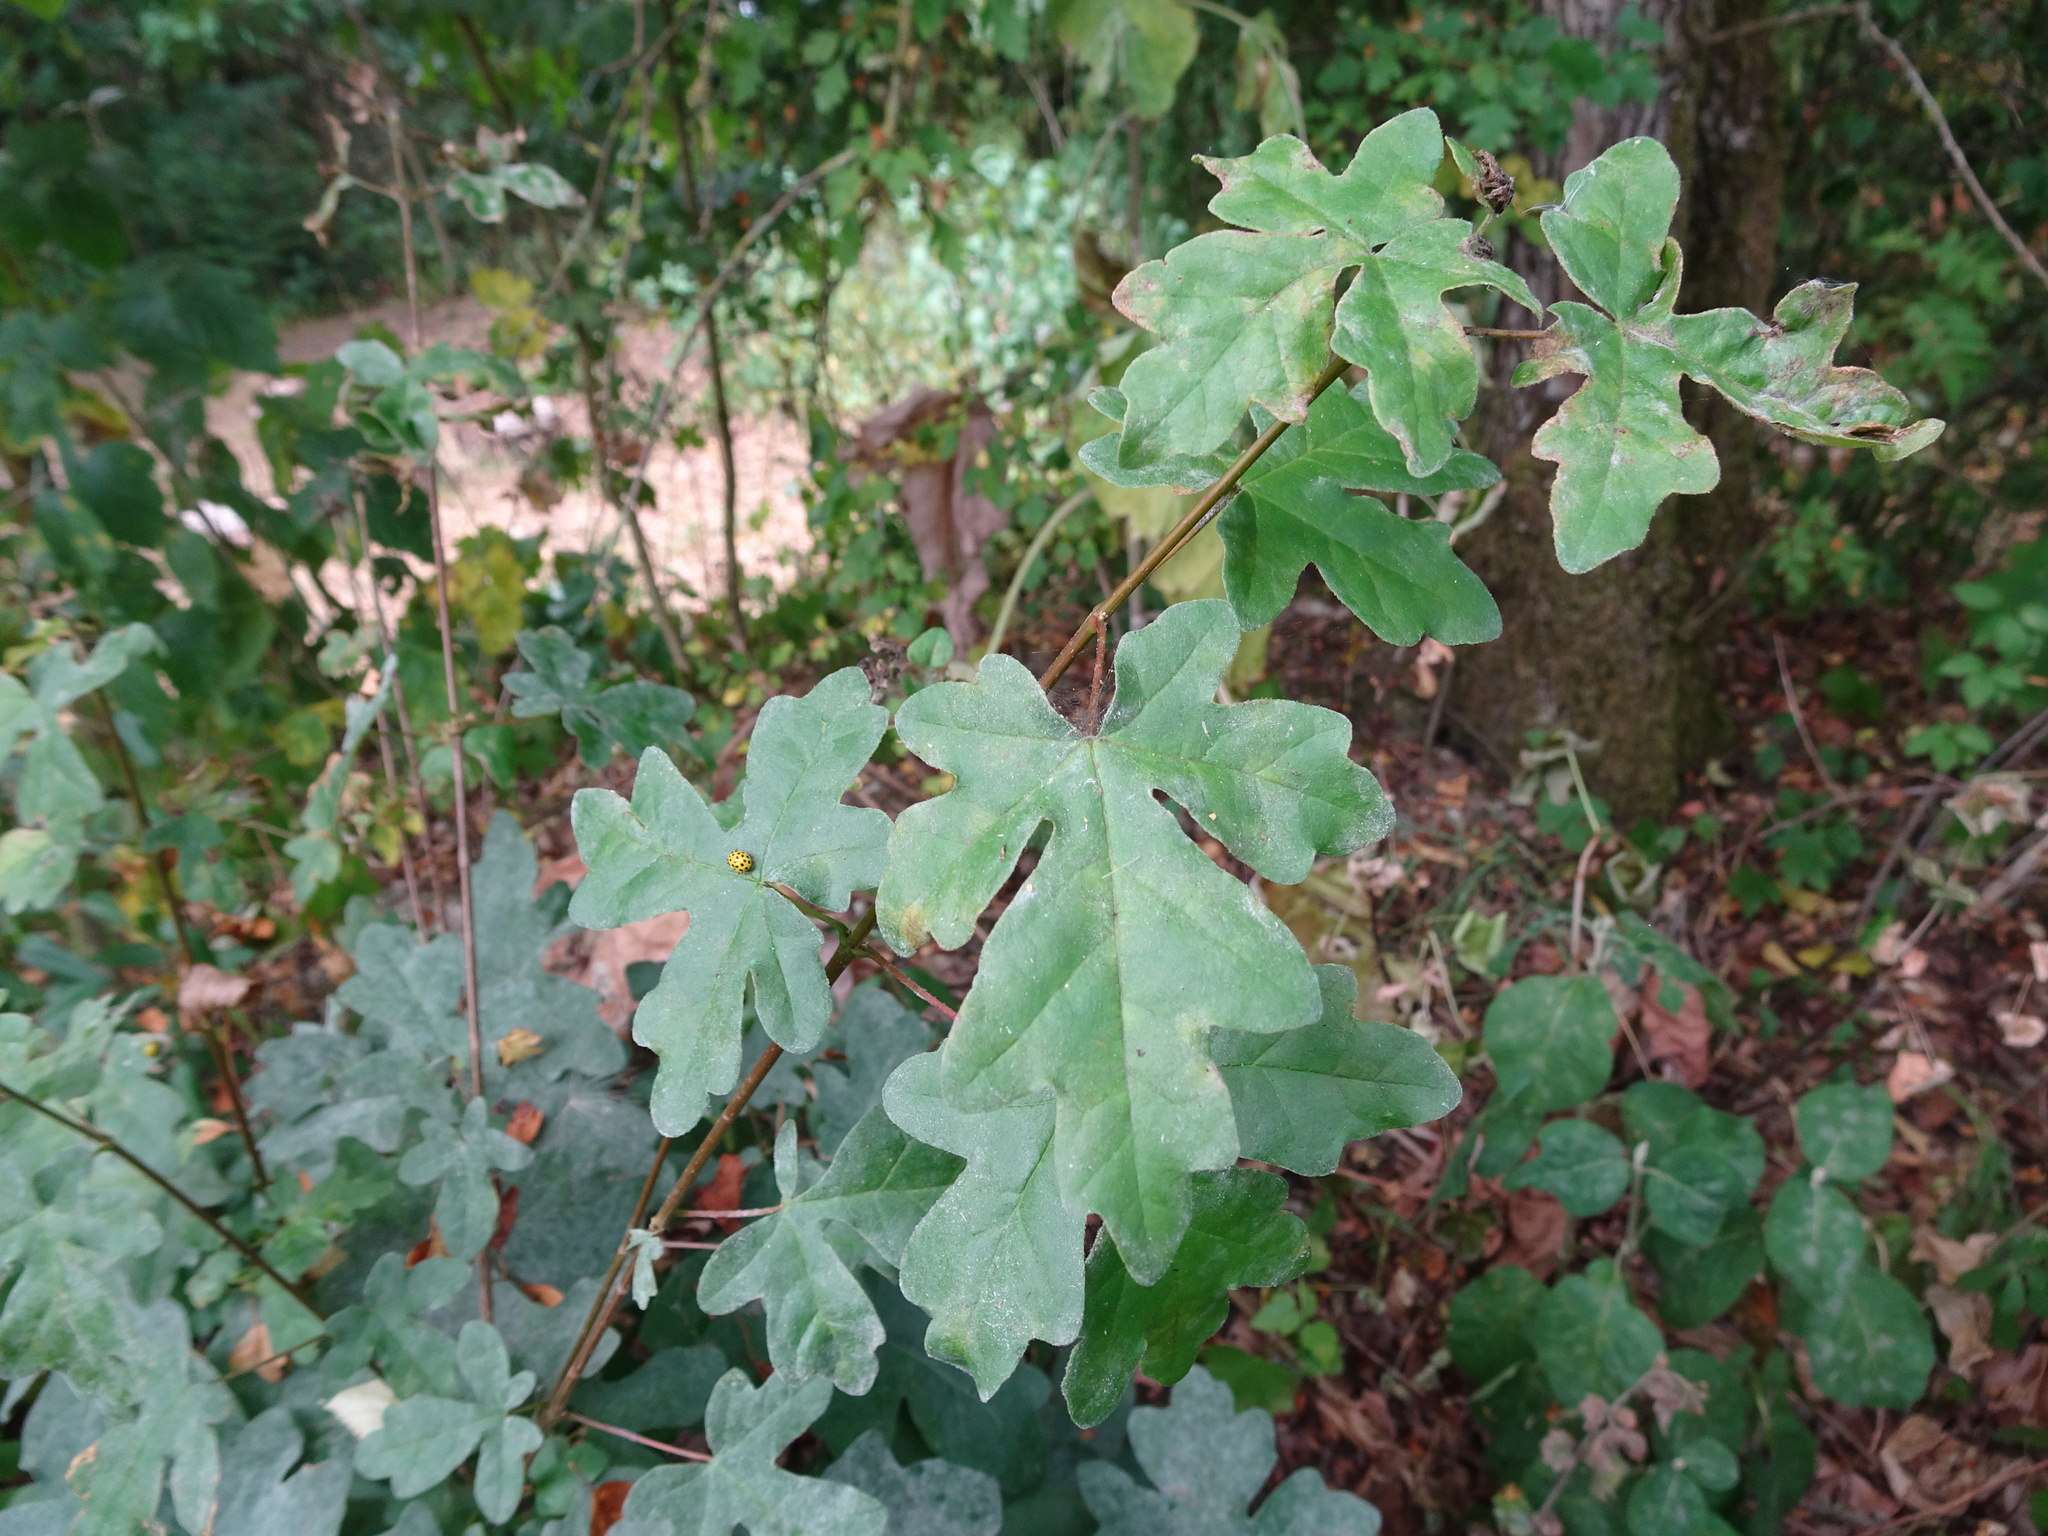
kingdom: Plantae
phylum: Tracheophyta
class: Magnoliopsida
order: Sapindales
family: Sapindaceae
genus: Acer
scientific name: Acer campestre
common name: Field maple
